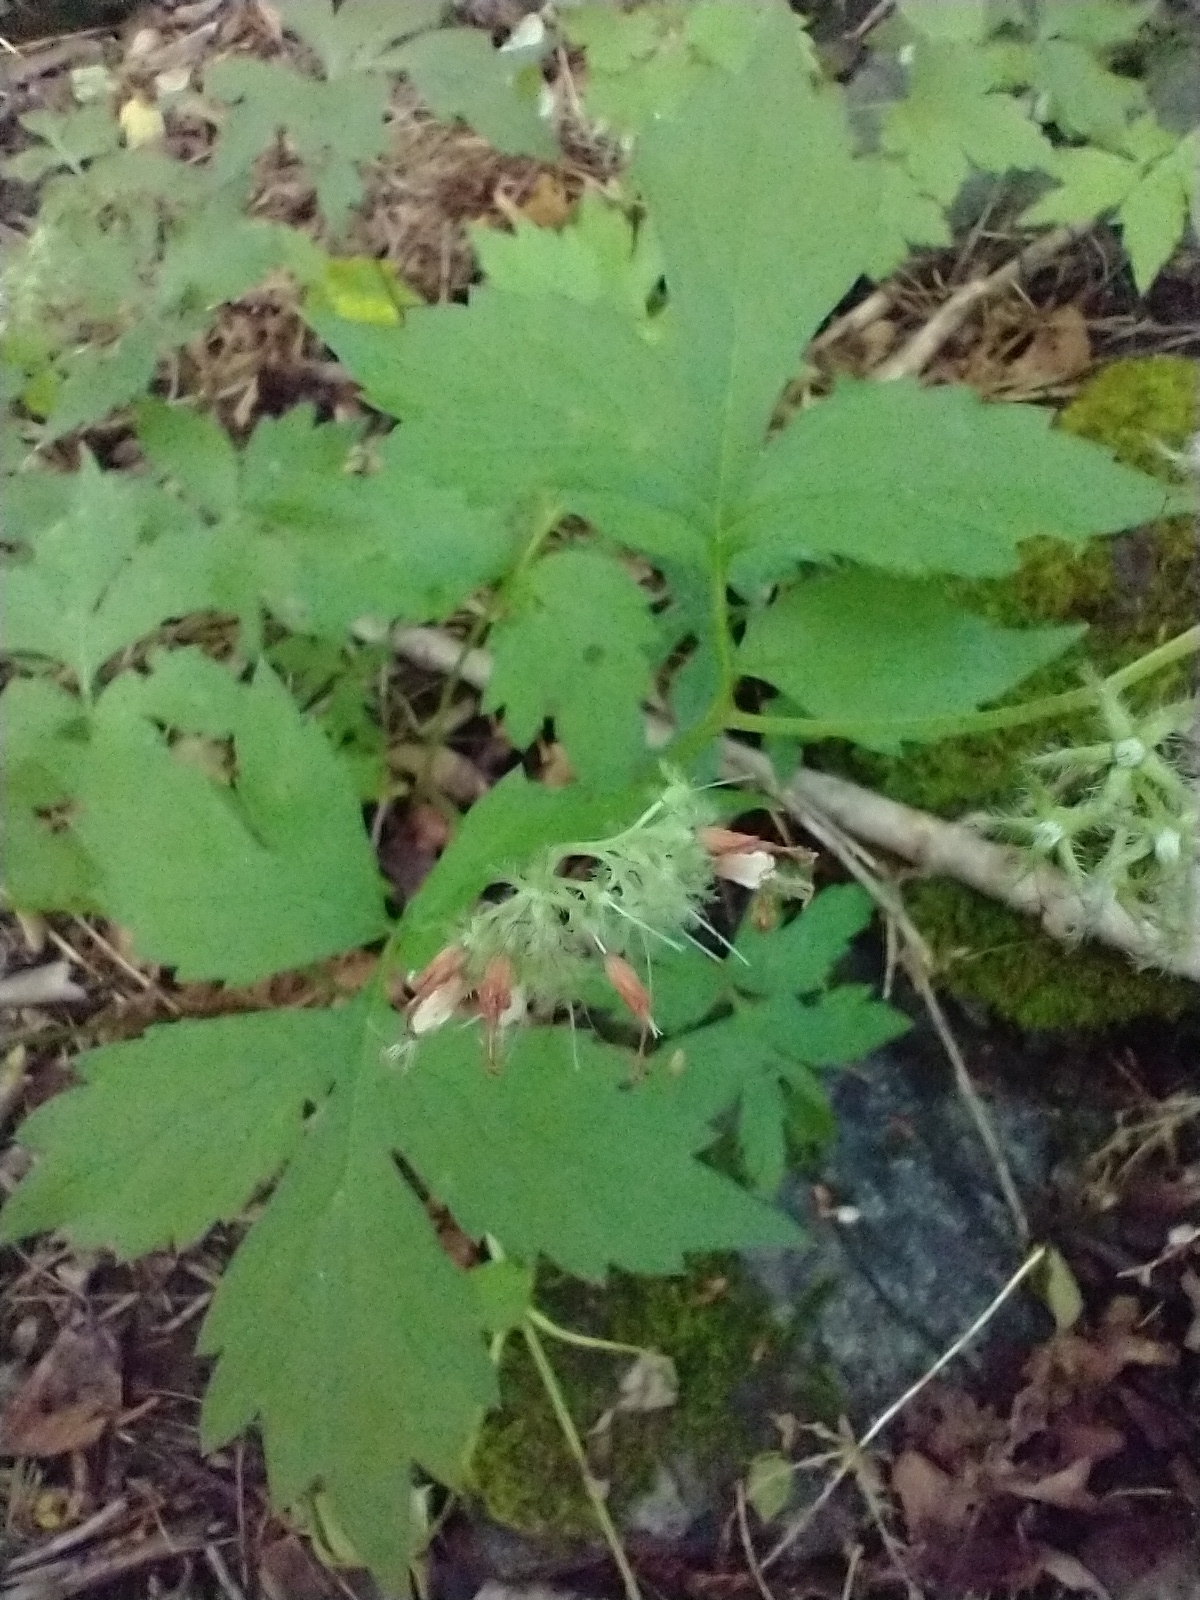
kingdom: Plantae
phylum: Tracheophyta
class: Magnoliopsida
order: Boraginales
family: Hydrophyllaceae
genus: Hydrophyllum
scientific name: Hydrophyllum virginianum
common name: Virginia waterleaf
